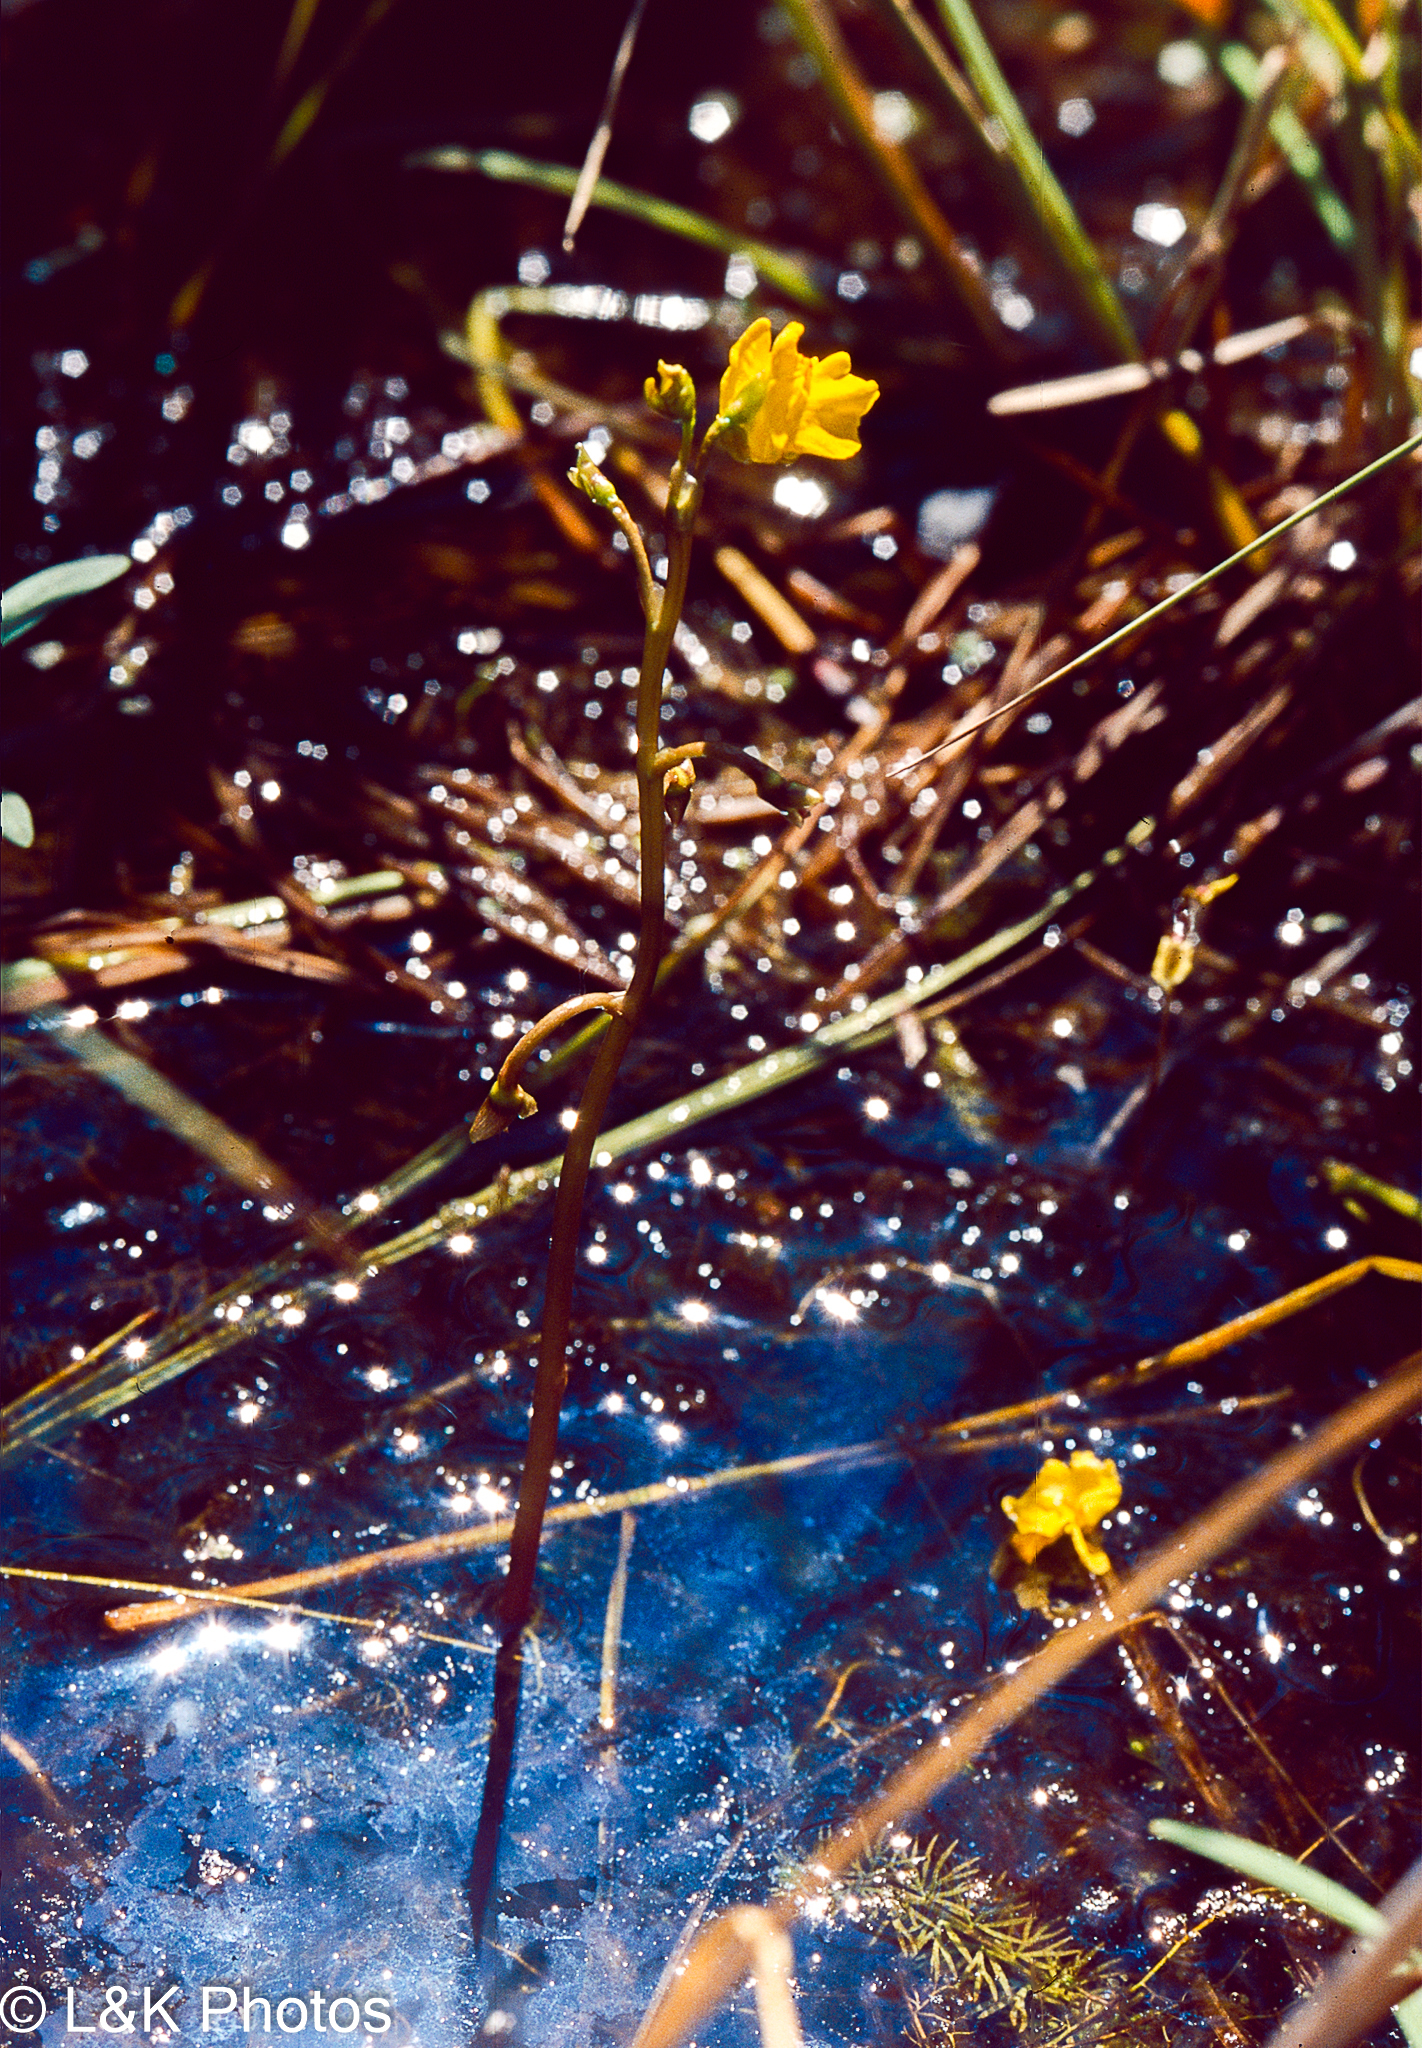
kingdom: Plantae
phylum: Tracheophyta
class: Magnoliopsida
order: Lamiales
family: Lentibulariaceae
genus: Utricularia
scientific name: Utricularia macrorhiza
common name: Common bladderwort
